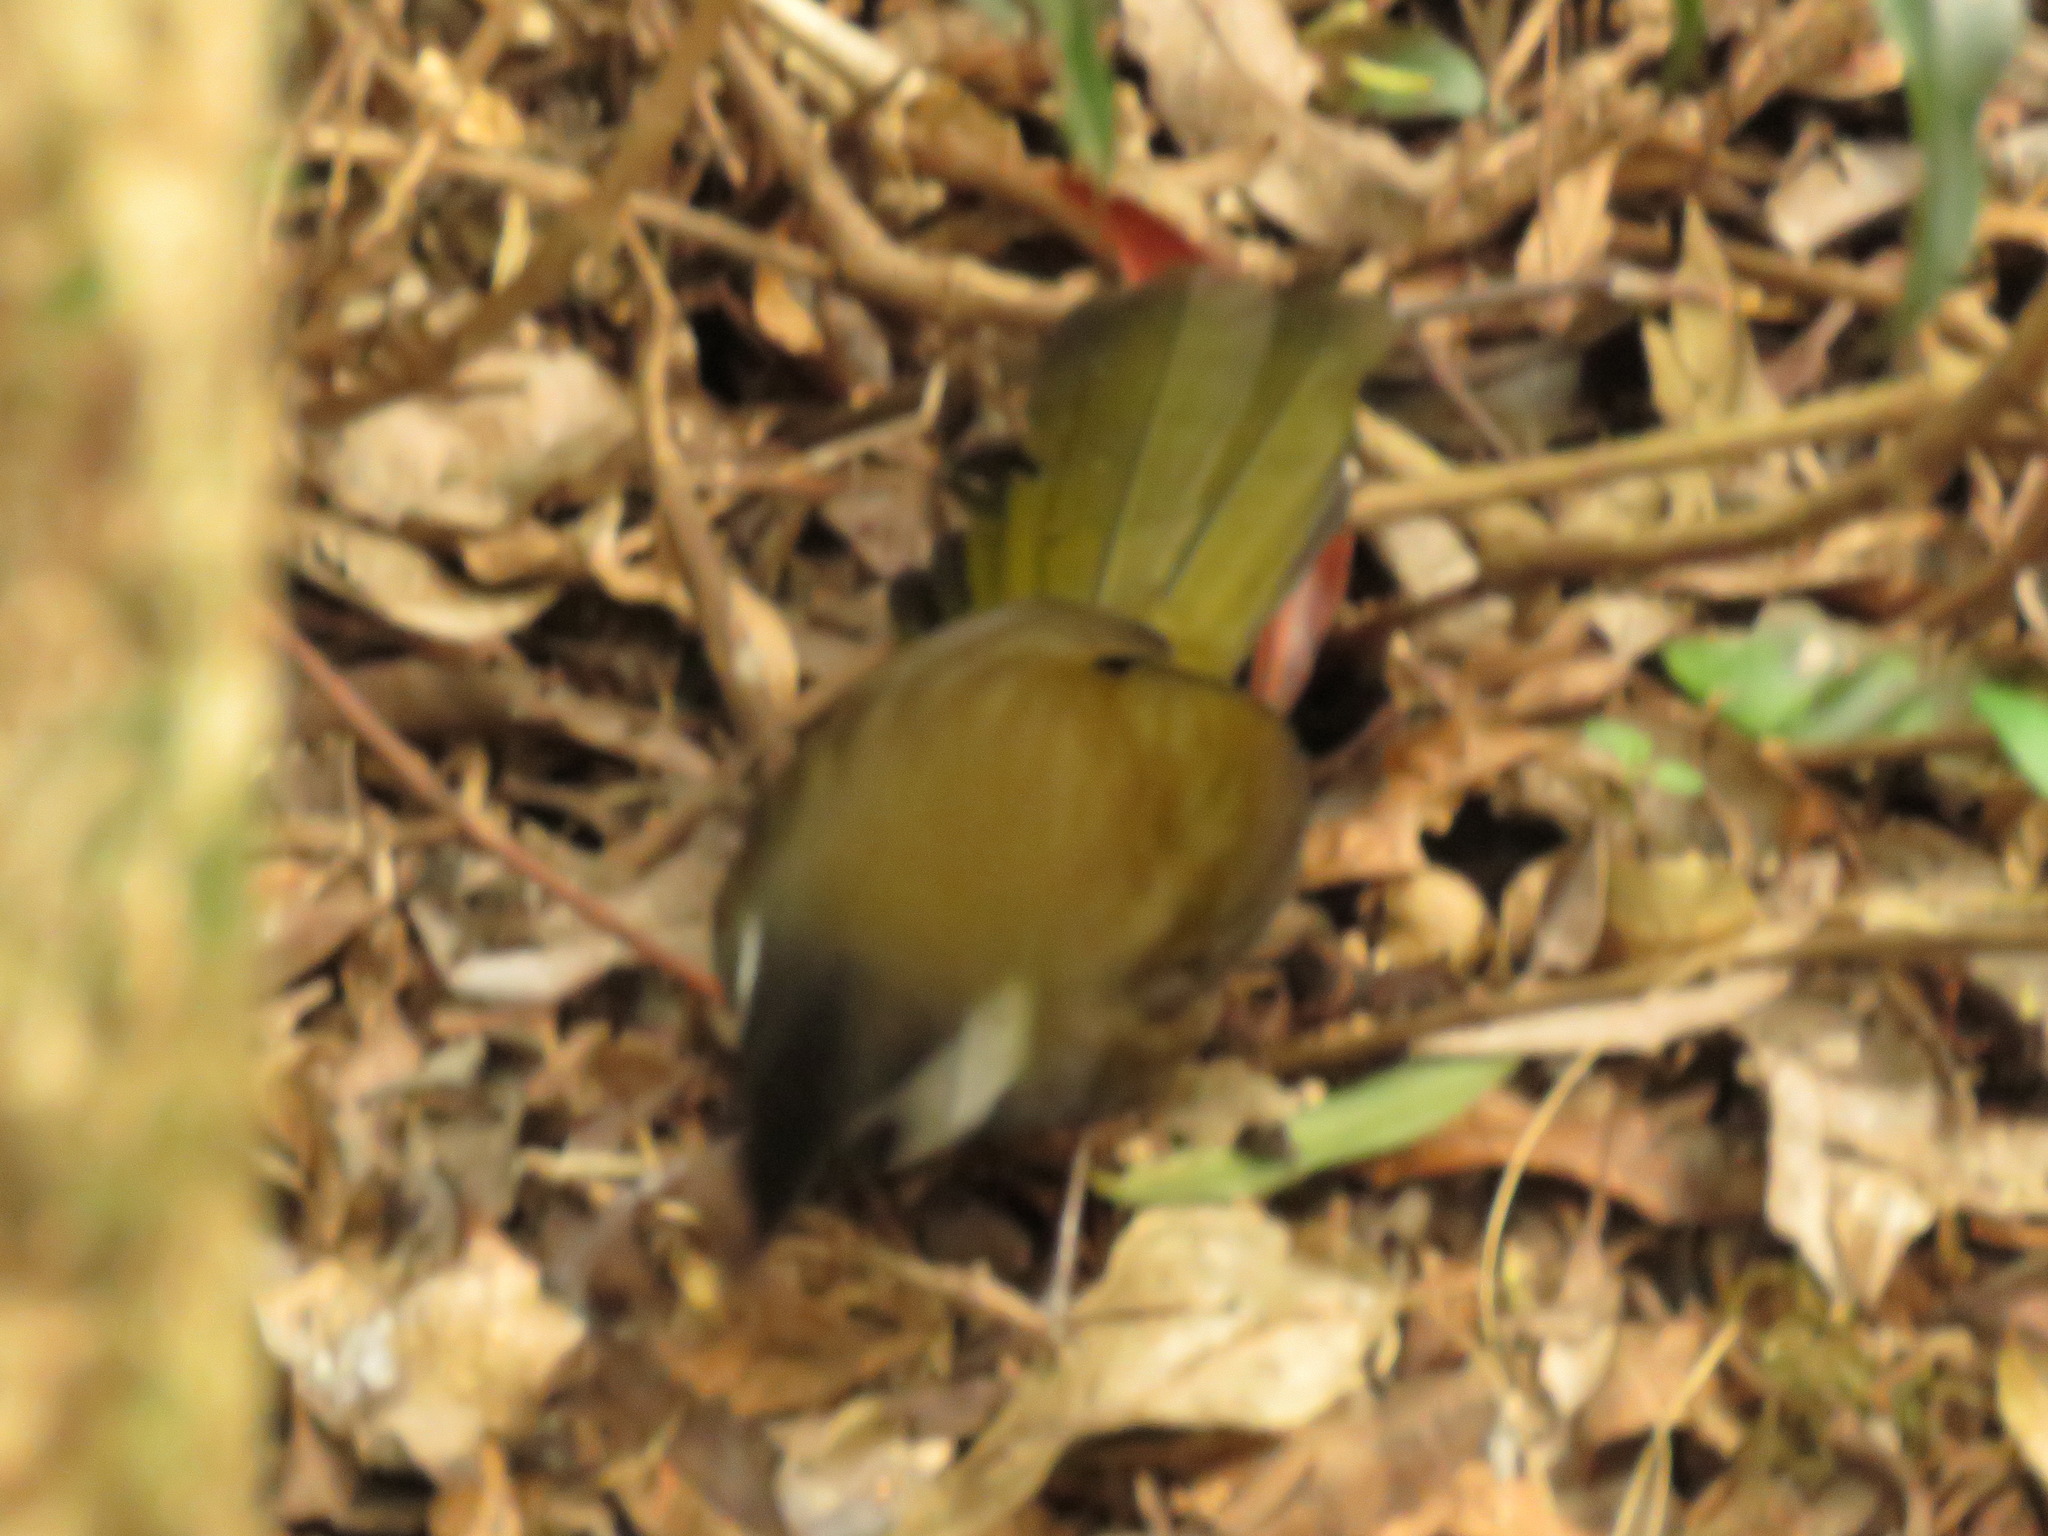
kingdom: Animalia
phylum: Chordata
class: Aves
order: Passeriformes
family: Psophodidae
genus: Psophodes
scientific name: Psophodes olivaceus
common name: Eastern whipbird
